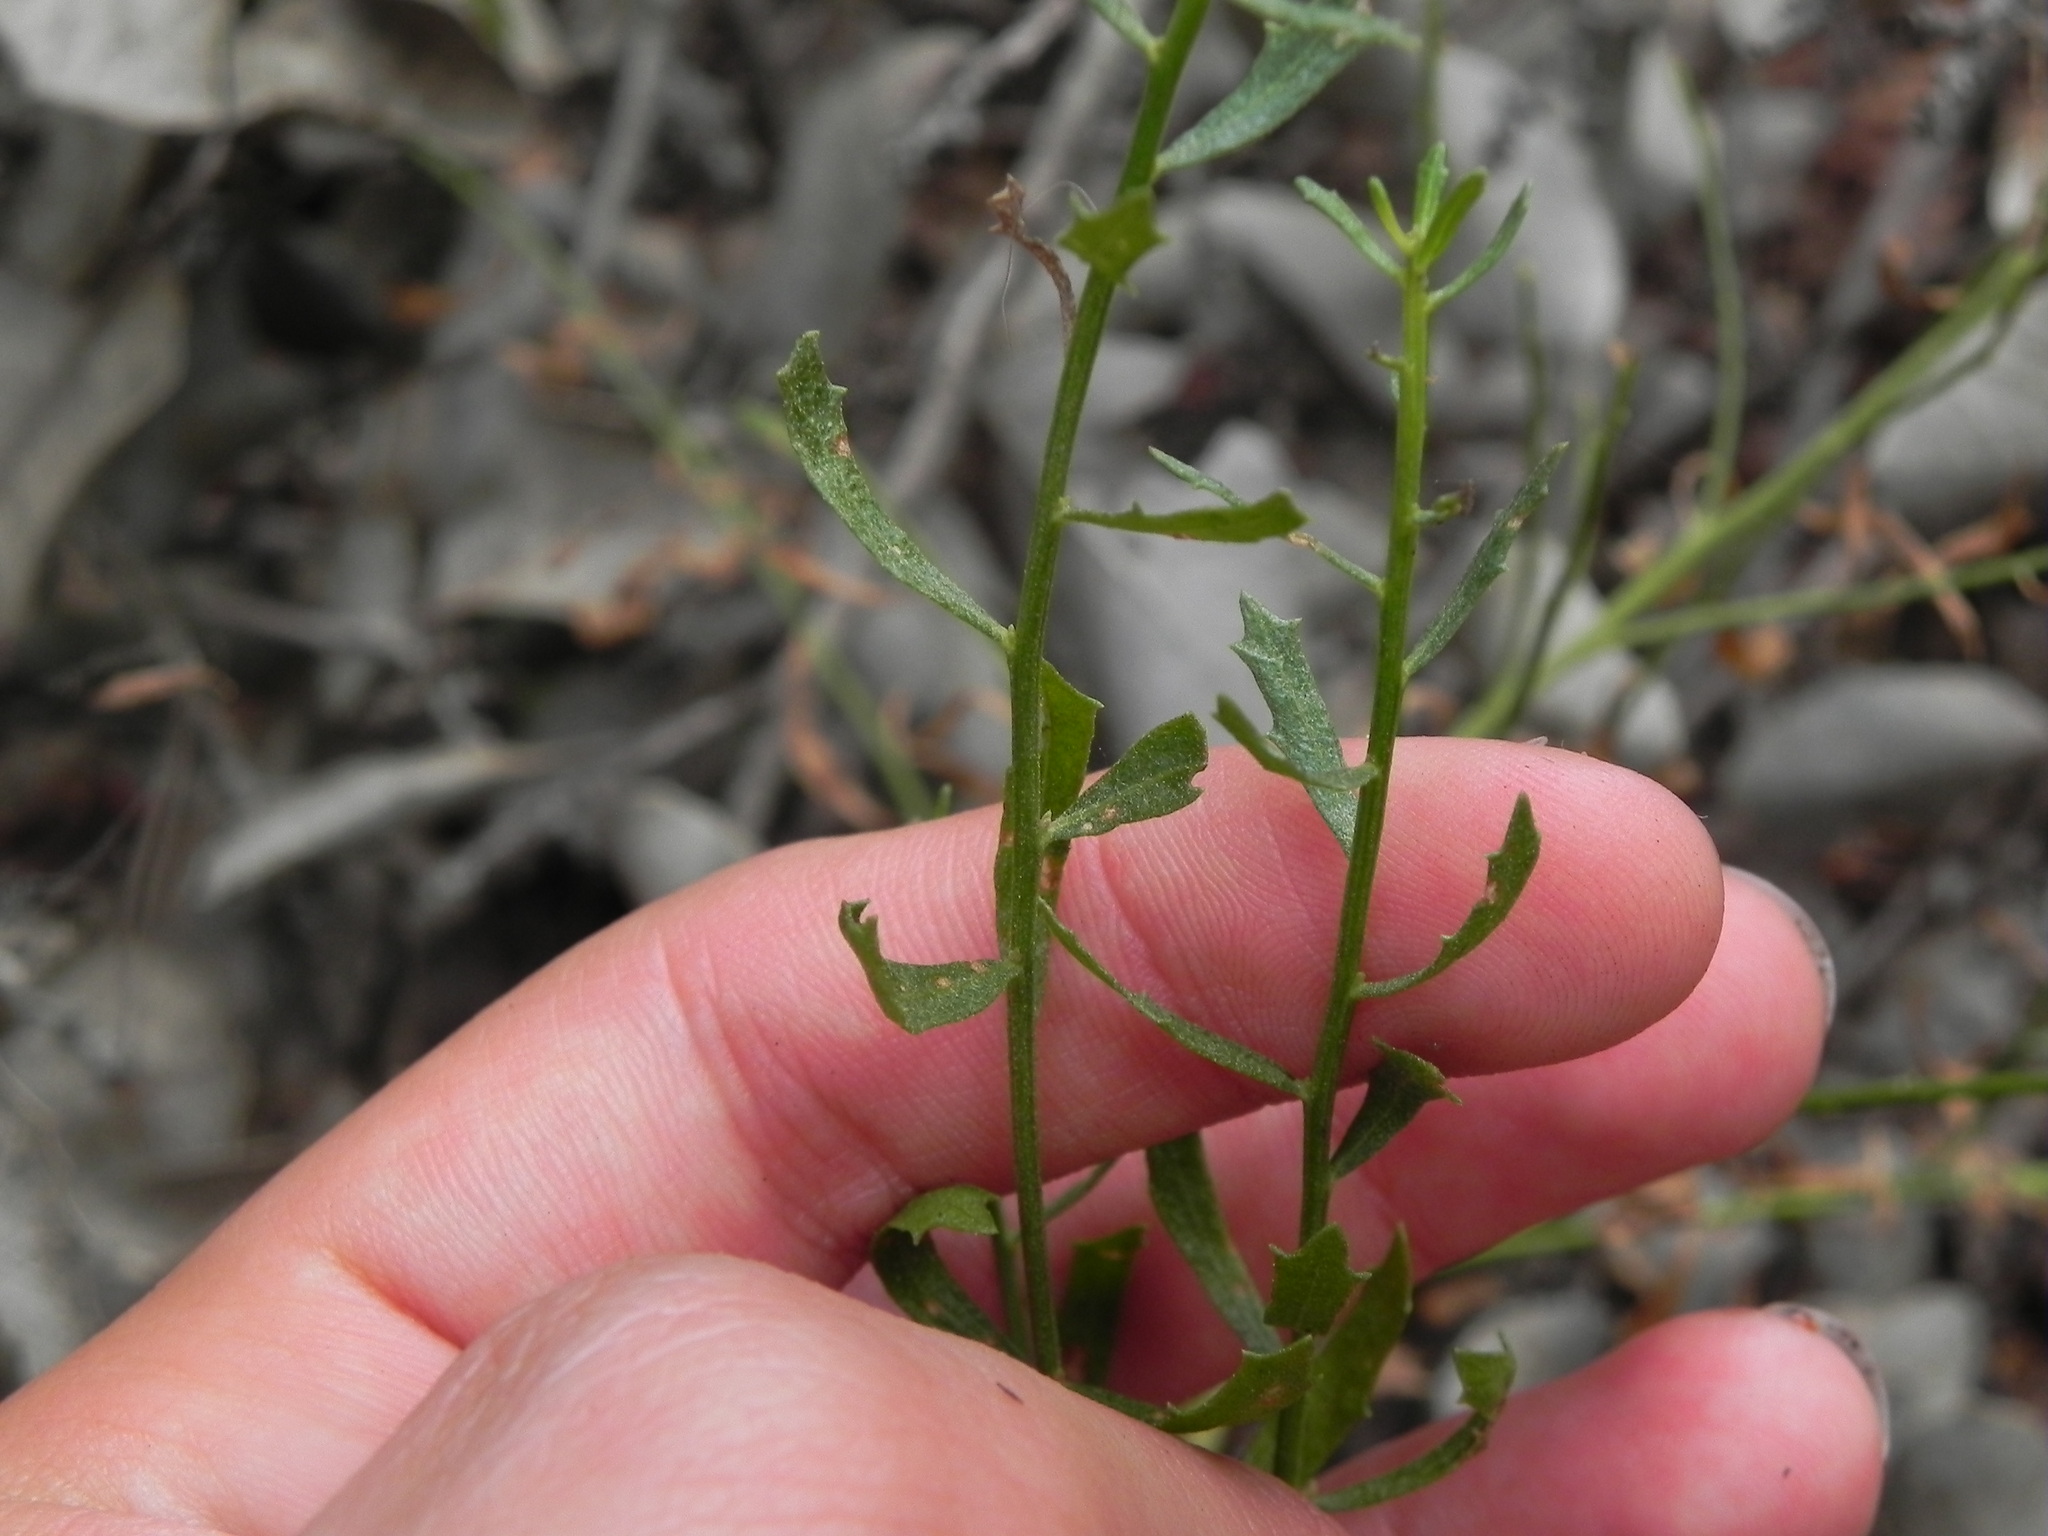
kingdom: Plantae
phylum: Tracheophyta
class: Magnoliopsida
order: Asterales
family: Asteraceae
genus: Baccharis
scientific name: Baccharis pilularis
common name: Coyotebrush
